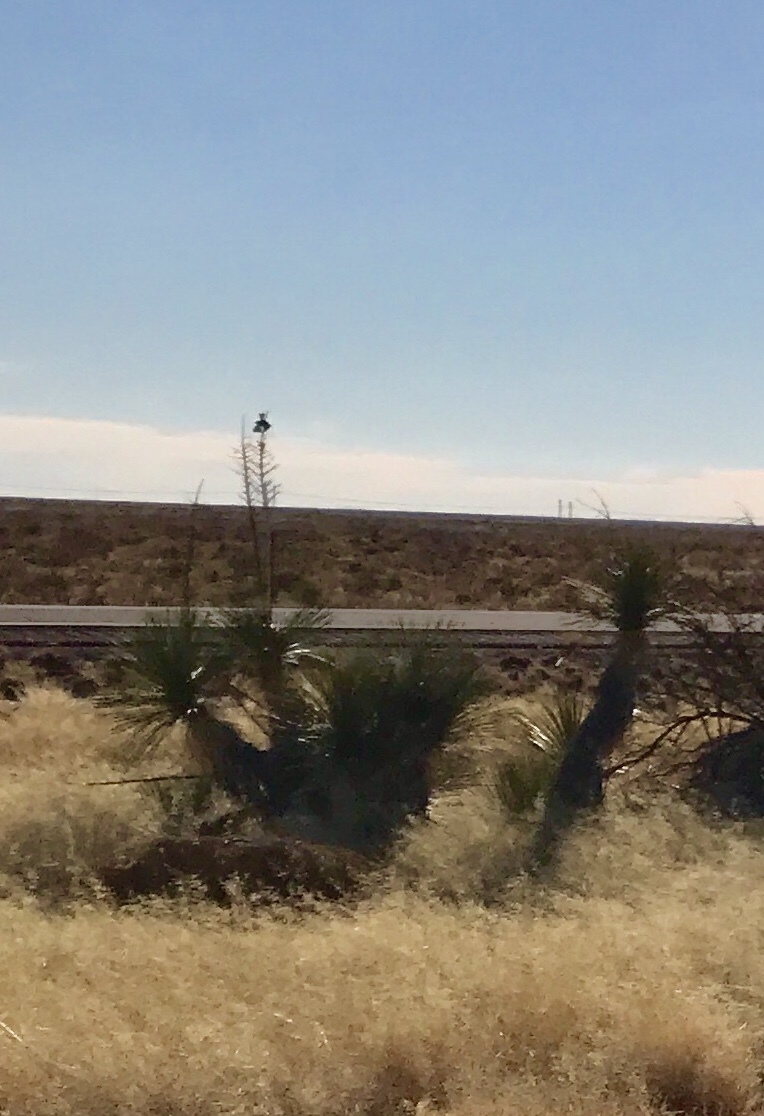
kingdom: Plantae
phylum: Tracheophyta
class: Liliopsida
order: Asparagales
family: Asparagaceae
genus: Yucca
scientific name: Yucca elata
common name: Palmella
